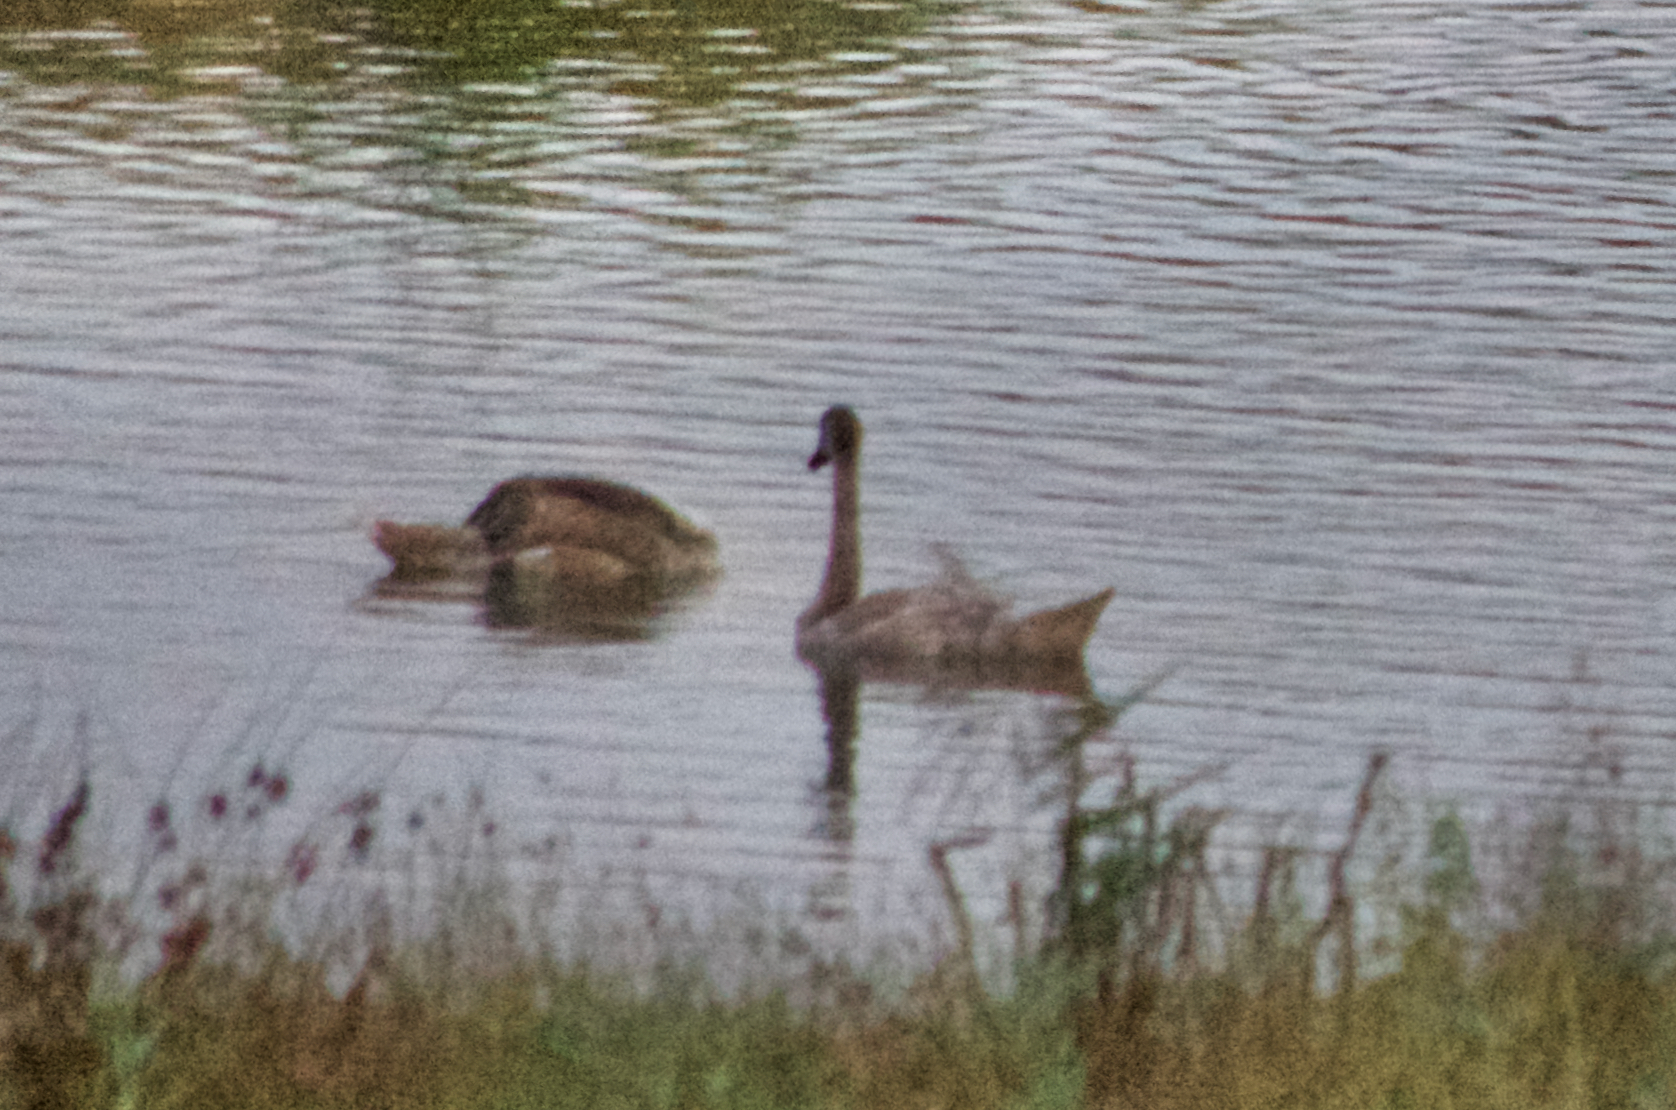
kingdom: Animalia
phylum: Chordata
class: Aves
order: Anseriformes
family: Anatidae
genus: Cygnus
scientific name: Cygnus olor
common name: Mute swan
